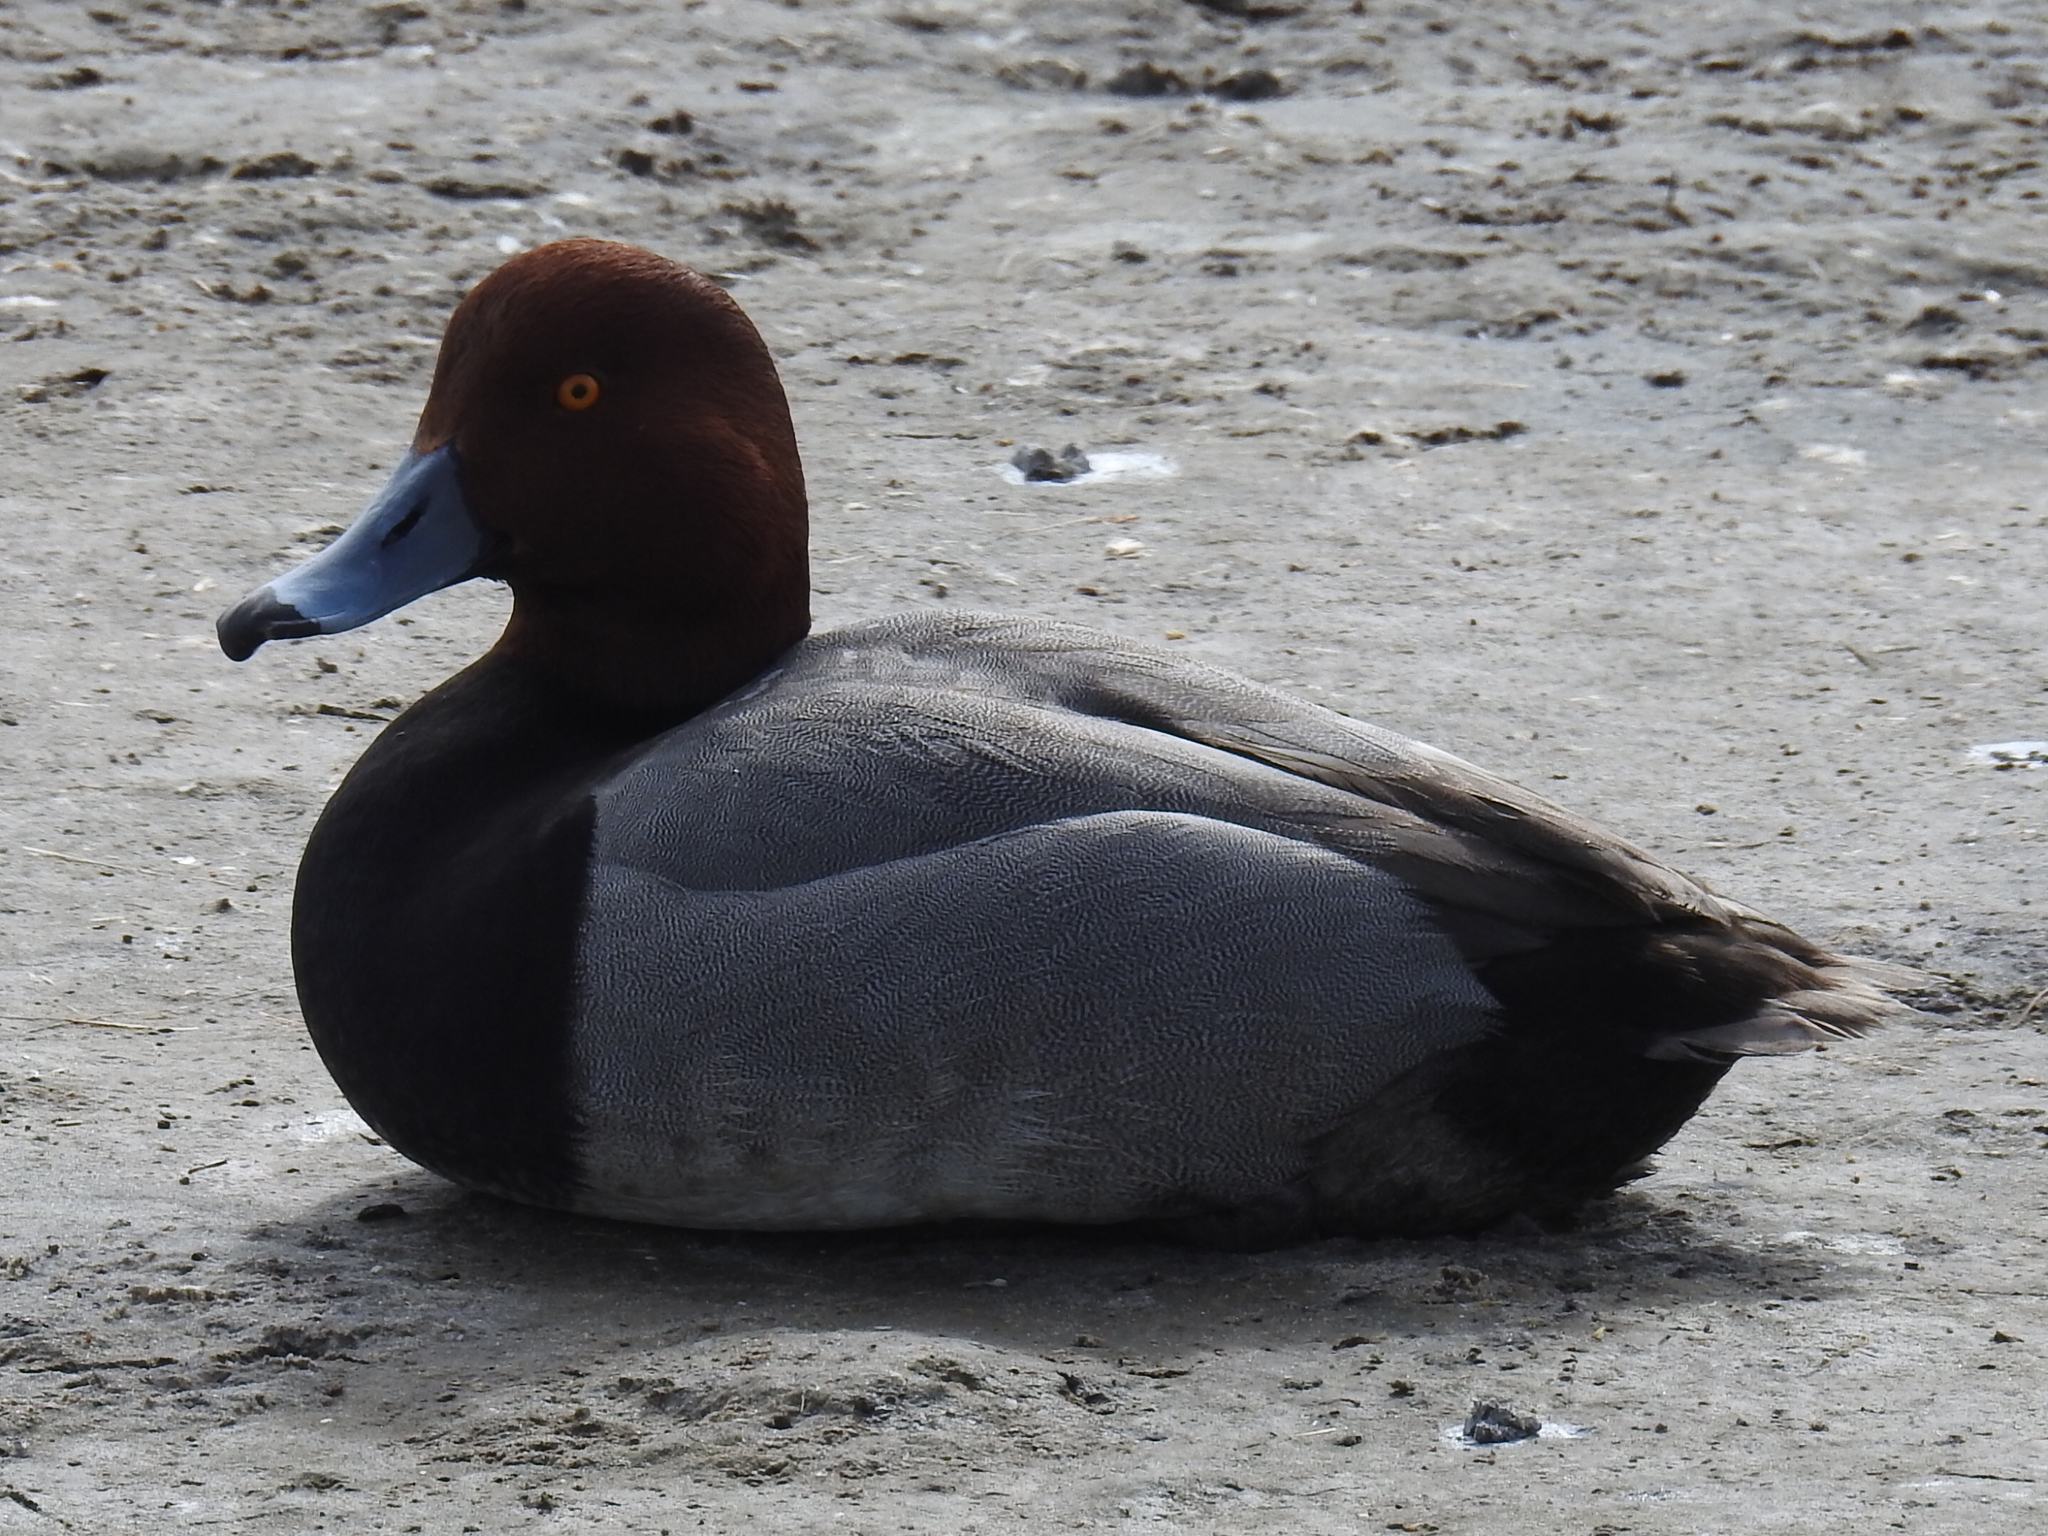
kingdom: Animalia
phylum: Chordata
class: Aves
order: Anseriformes
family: Anatidae
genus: Aythya
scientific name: Aythya americana
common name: Redhead
